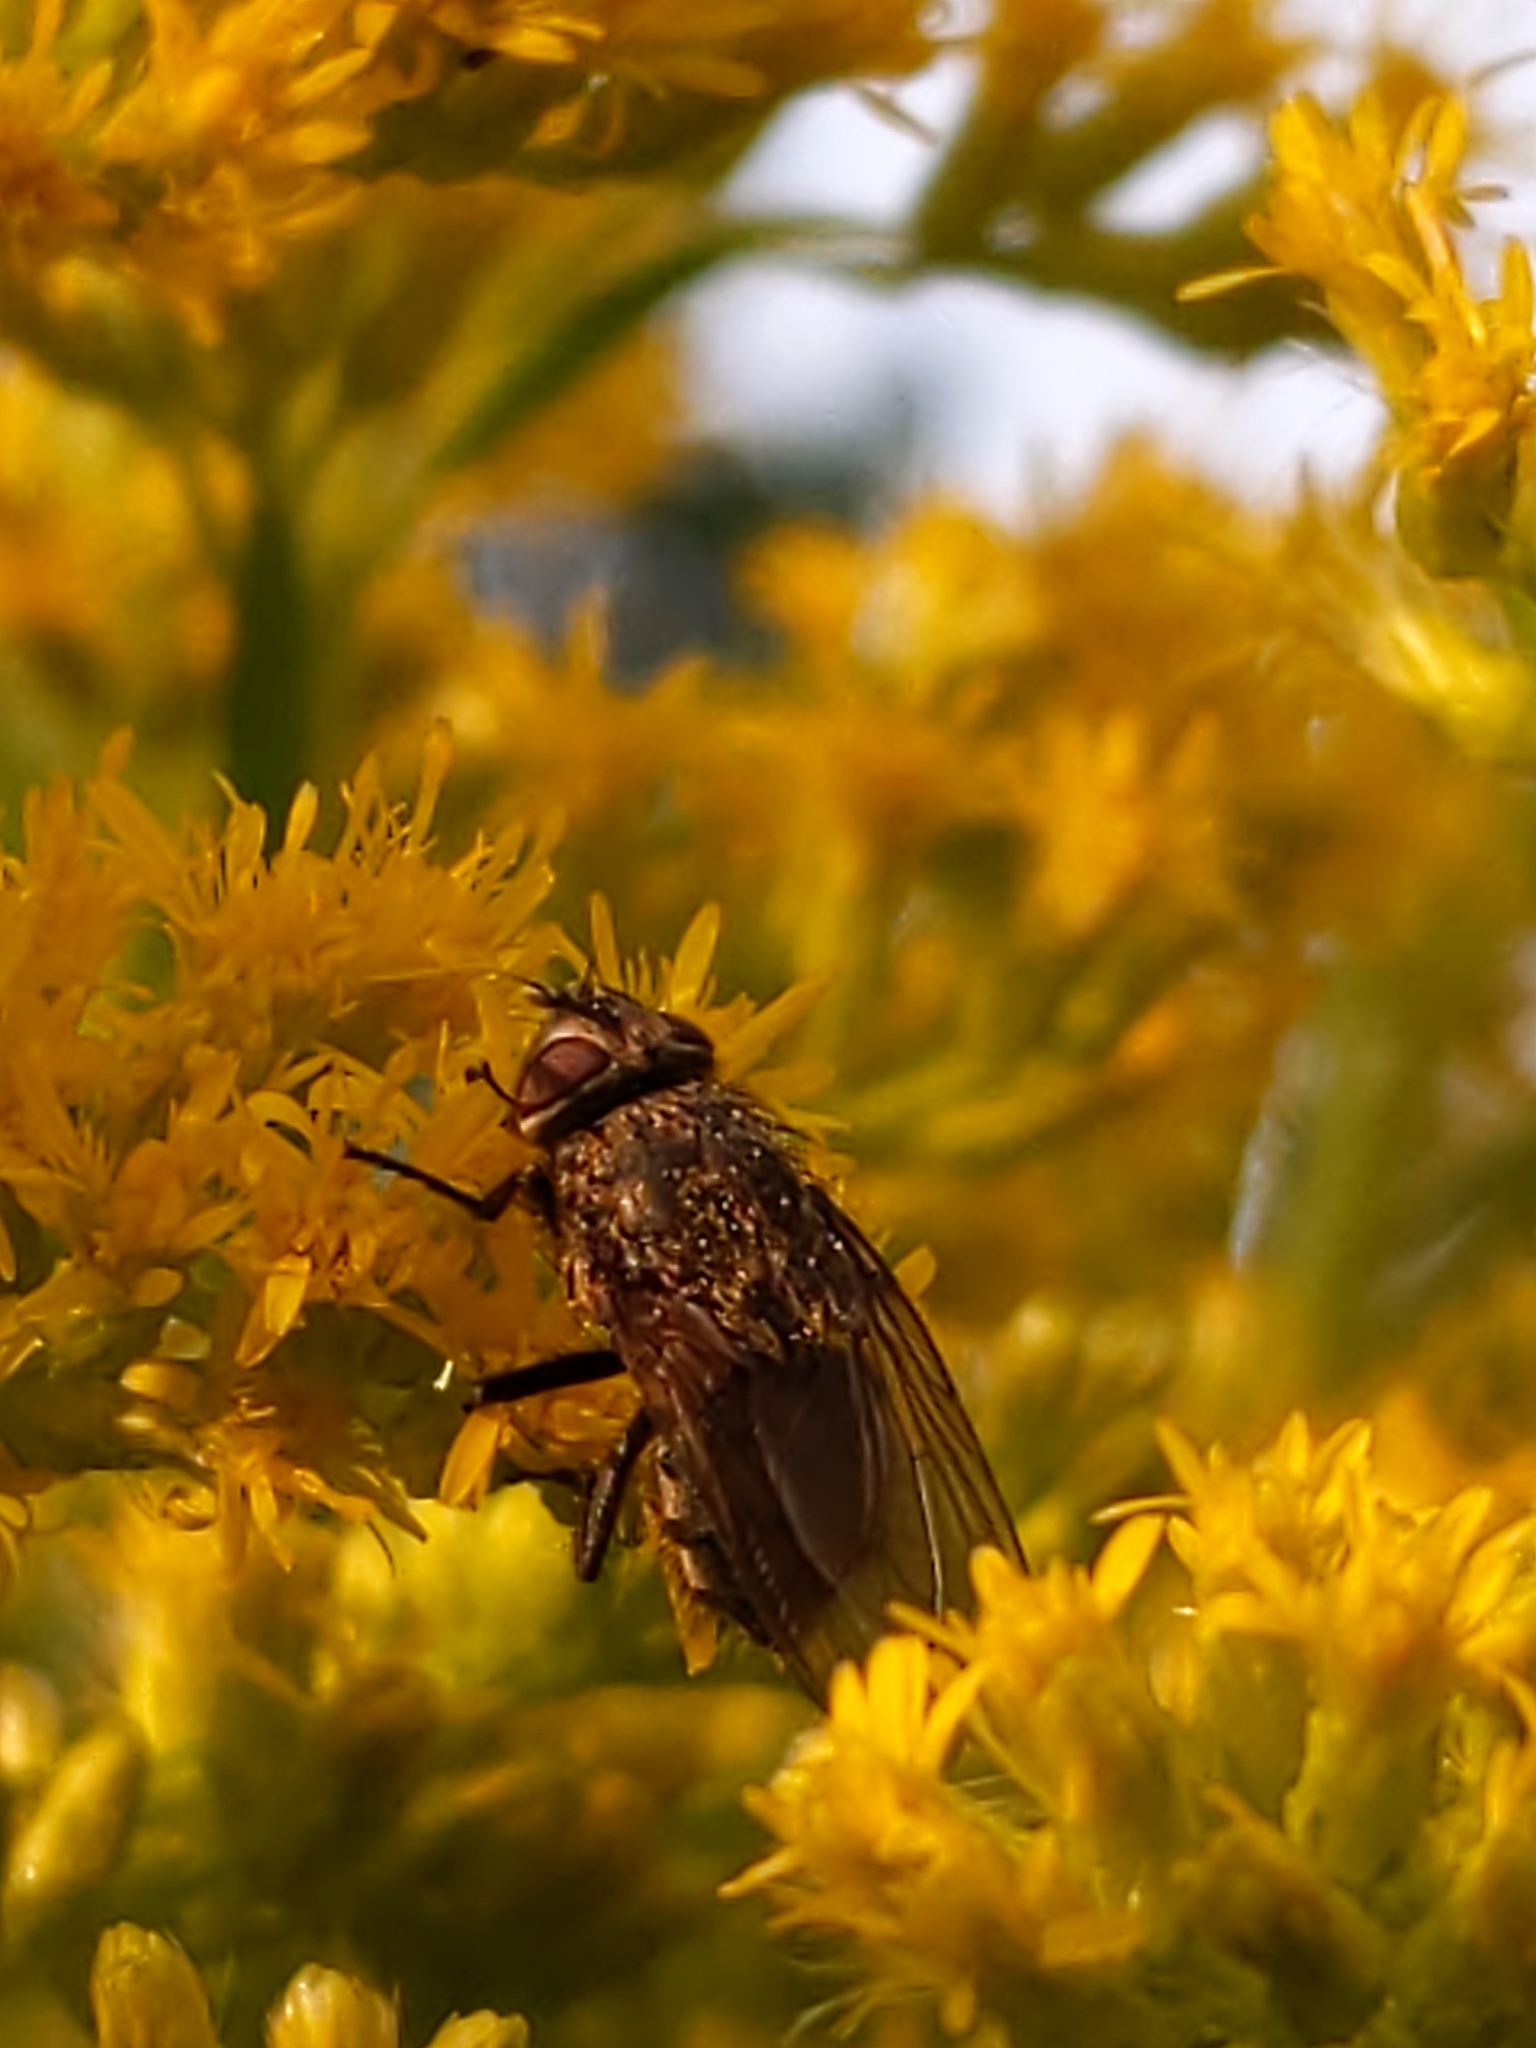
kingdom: Animalia
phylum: Arthropoda
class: Insecta
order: Diptera
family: Polleniidae
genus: Pollenia
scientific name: Pollenia
